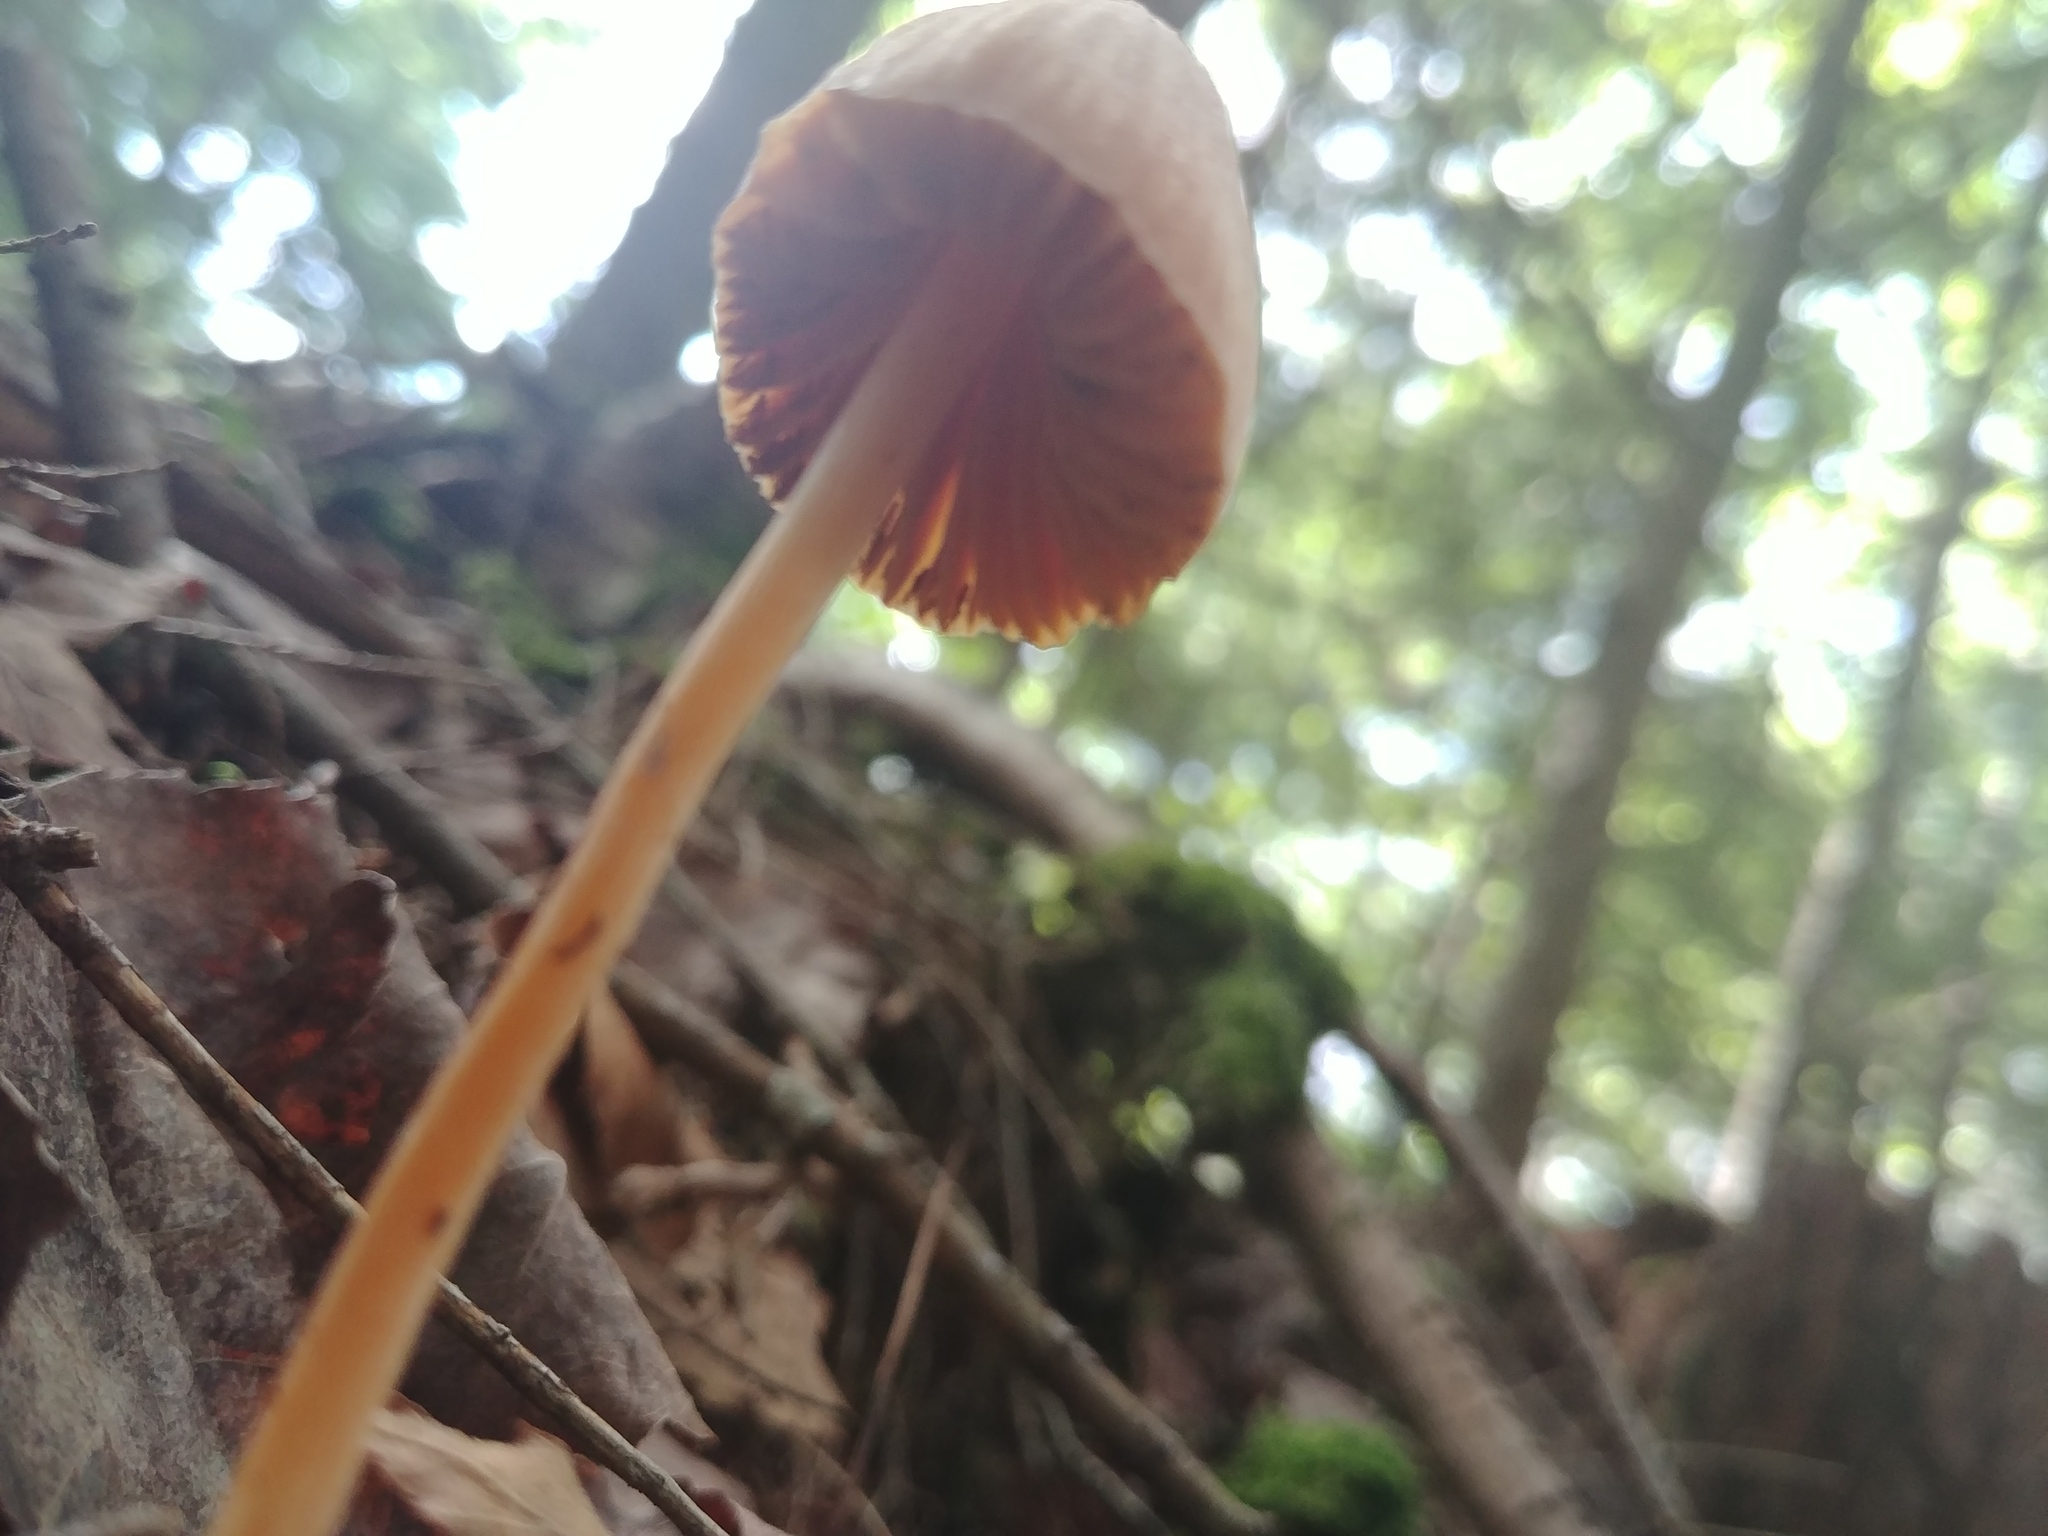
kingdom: Fungi
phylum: Basidiomycota
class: Agaricomycetes
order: Agaricales
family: Entolomataceae
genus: Entoloma
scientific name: Entoloma quadratum
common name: Salmon pinkgill
